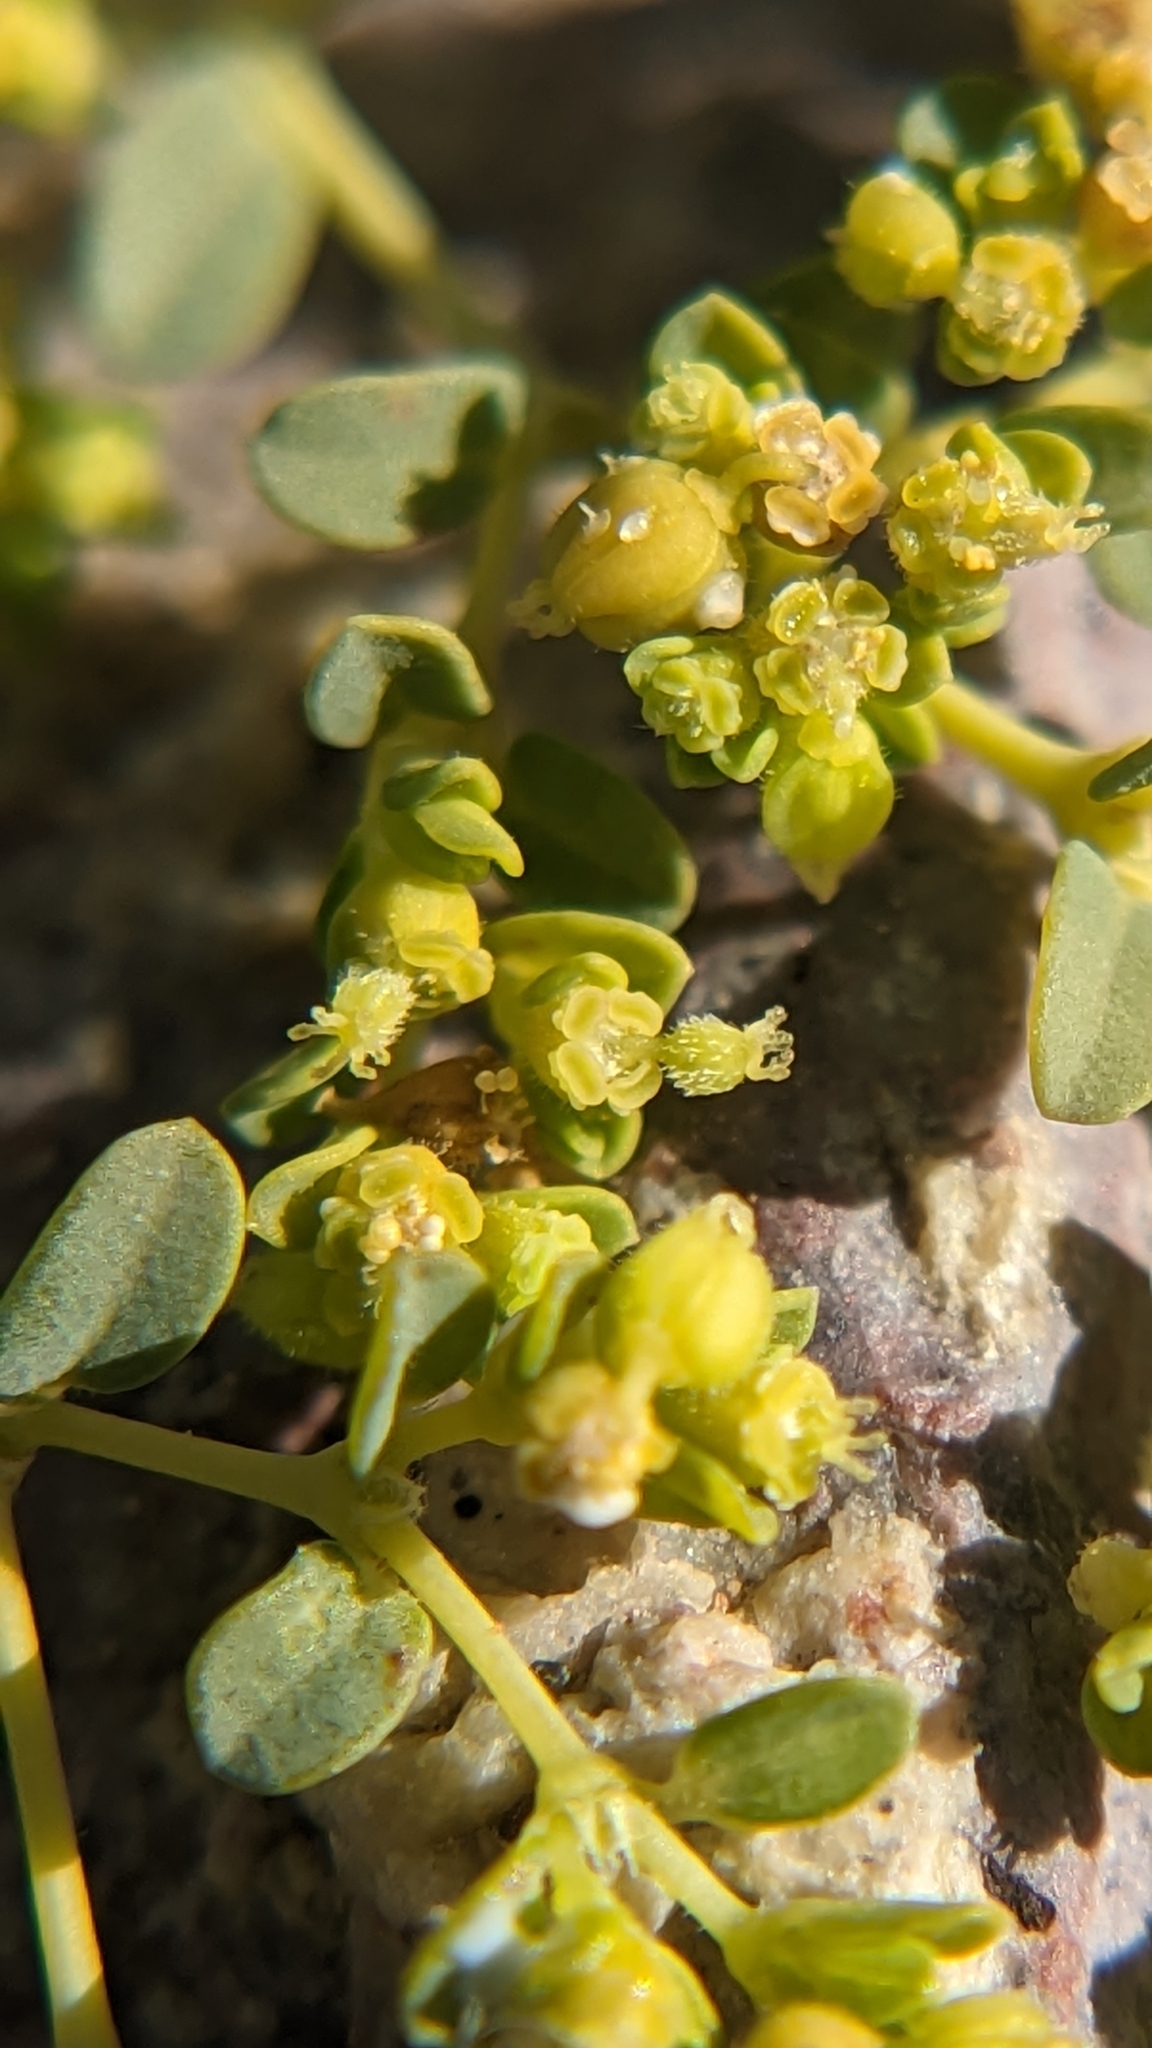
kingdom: Plantae
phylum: Tracheophyta
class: Magnoliopsida
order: Malpighiales
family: Euphorbiaceae
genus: Euphorbia
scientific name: Euphorbia polycarpa
